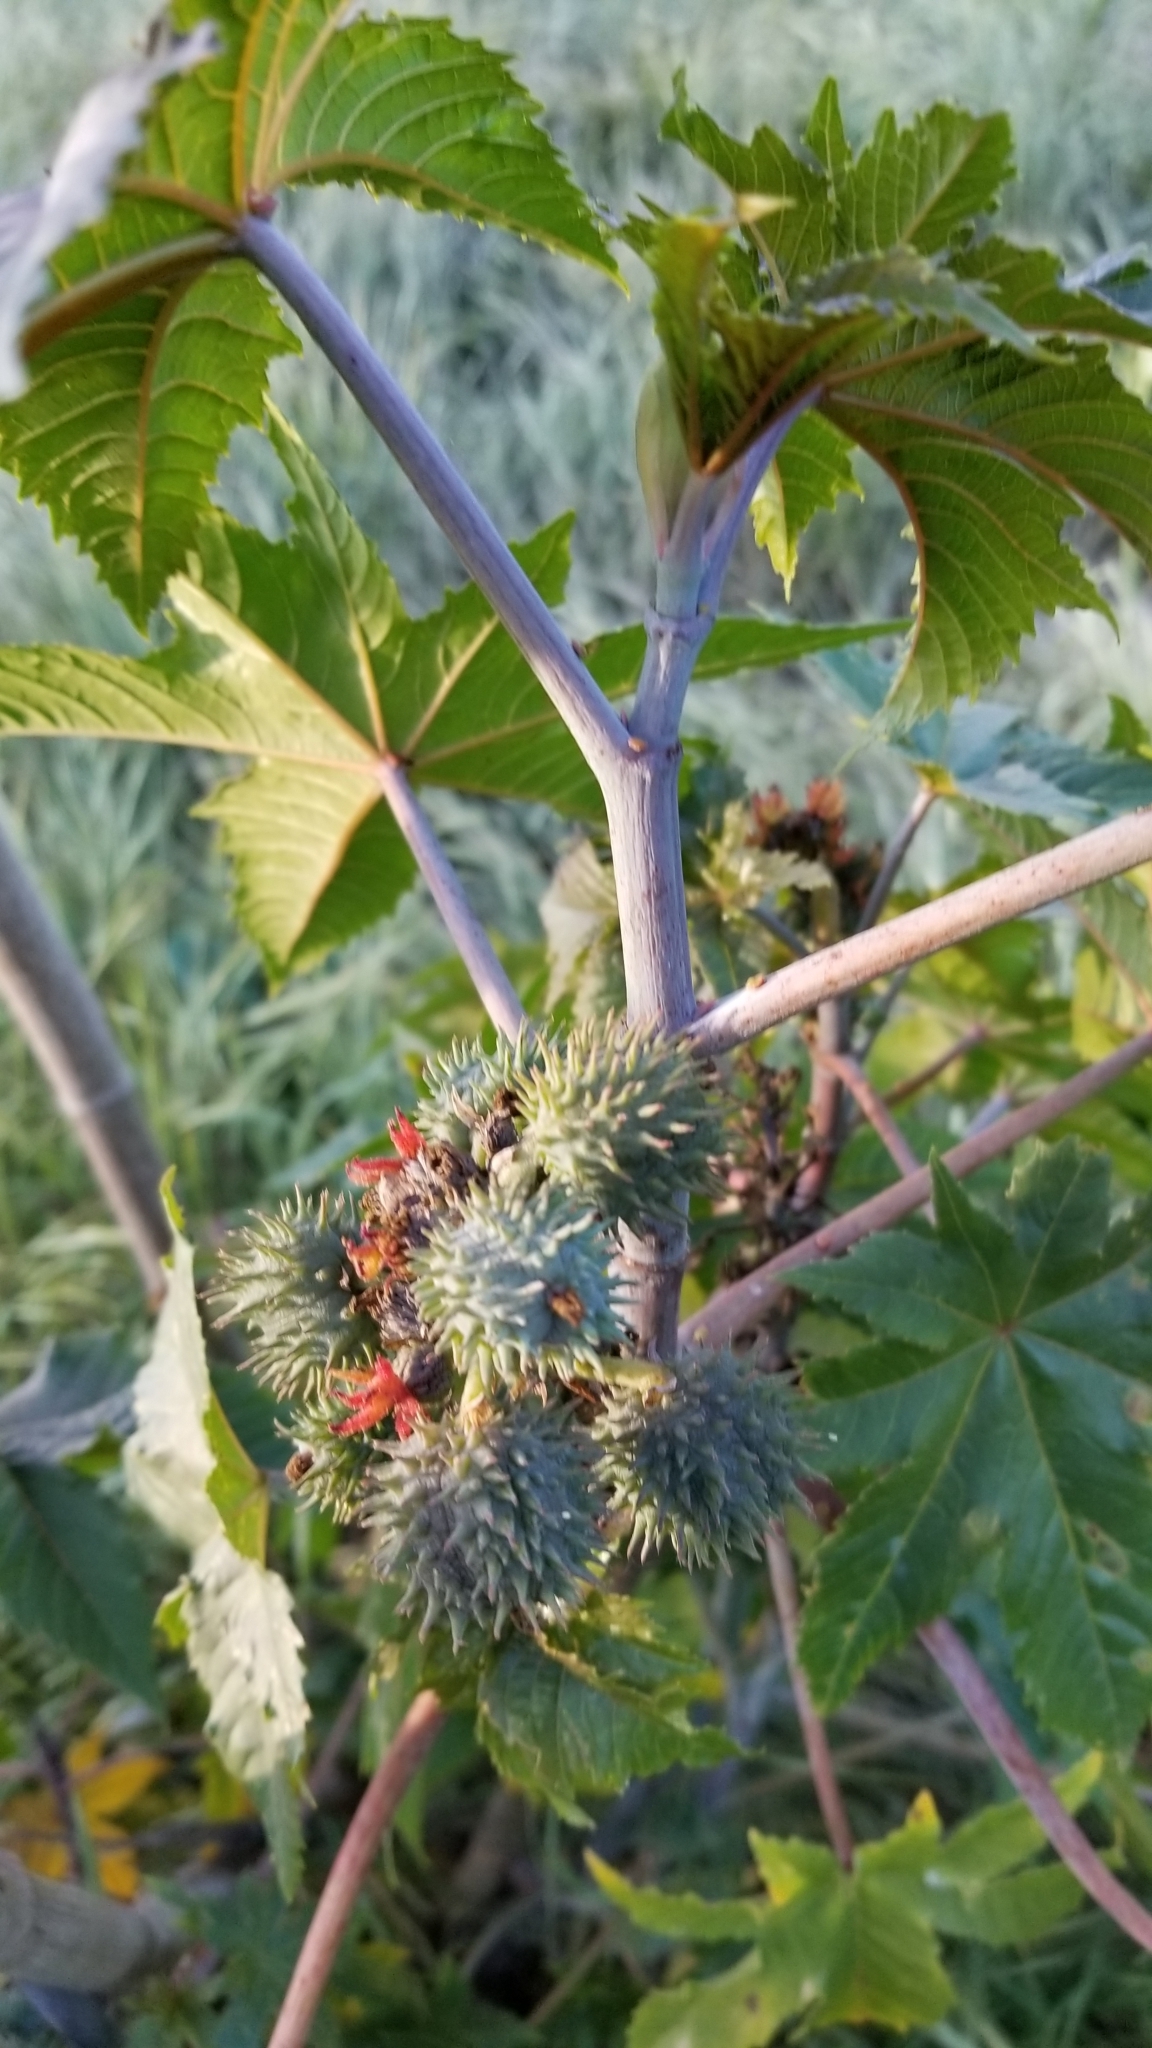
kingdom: Plantae
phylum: Tracheophyta
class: Magnoliopsida
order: Malpighiales
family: Euphorbiaceae
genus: Ricinus
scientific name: Ricinus communis
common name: Castor-oil-plant
